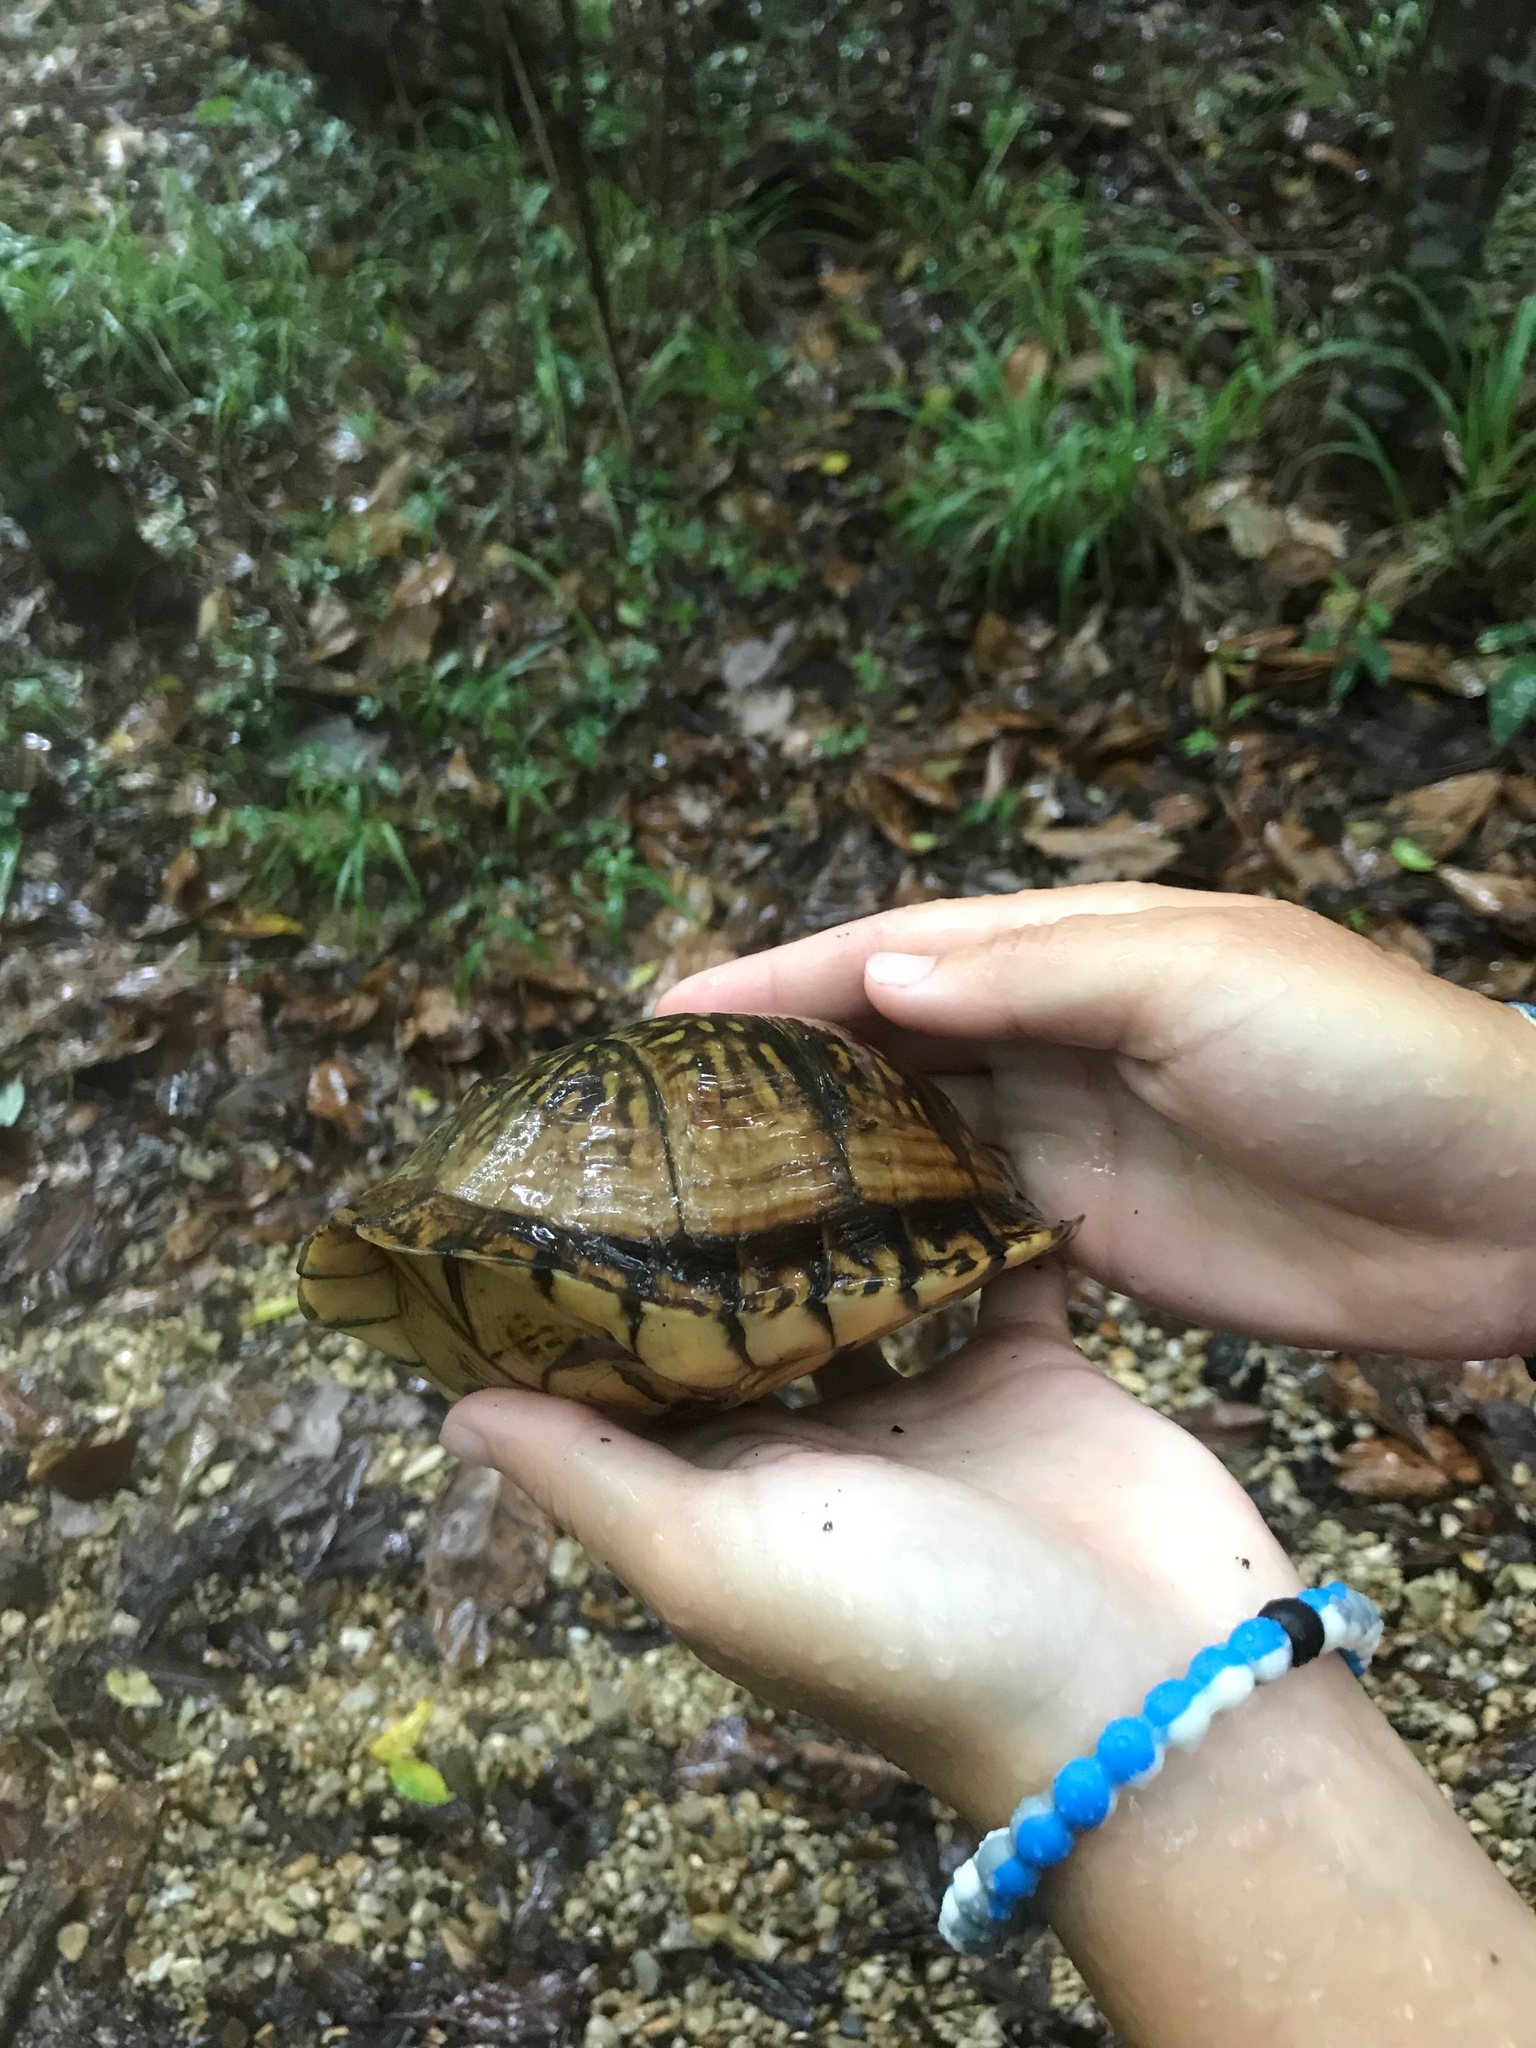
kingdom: Animalia
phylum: Chordata
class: Testudines
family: Emydidae
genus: Terrapene
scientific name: Terrapene carolina
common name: Common box turtle
